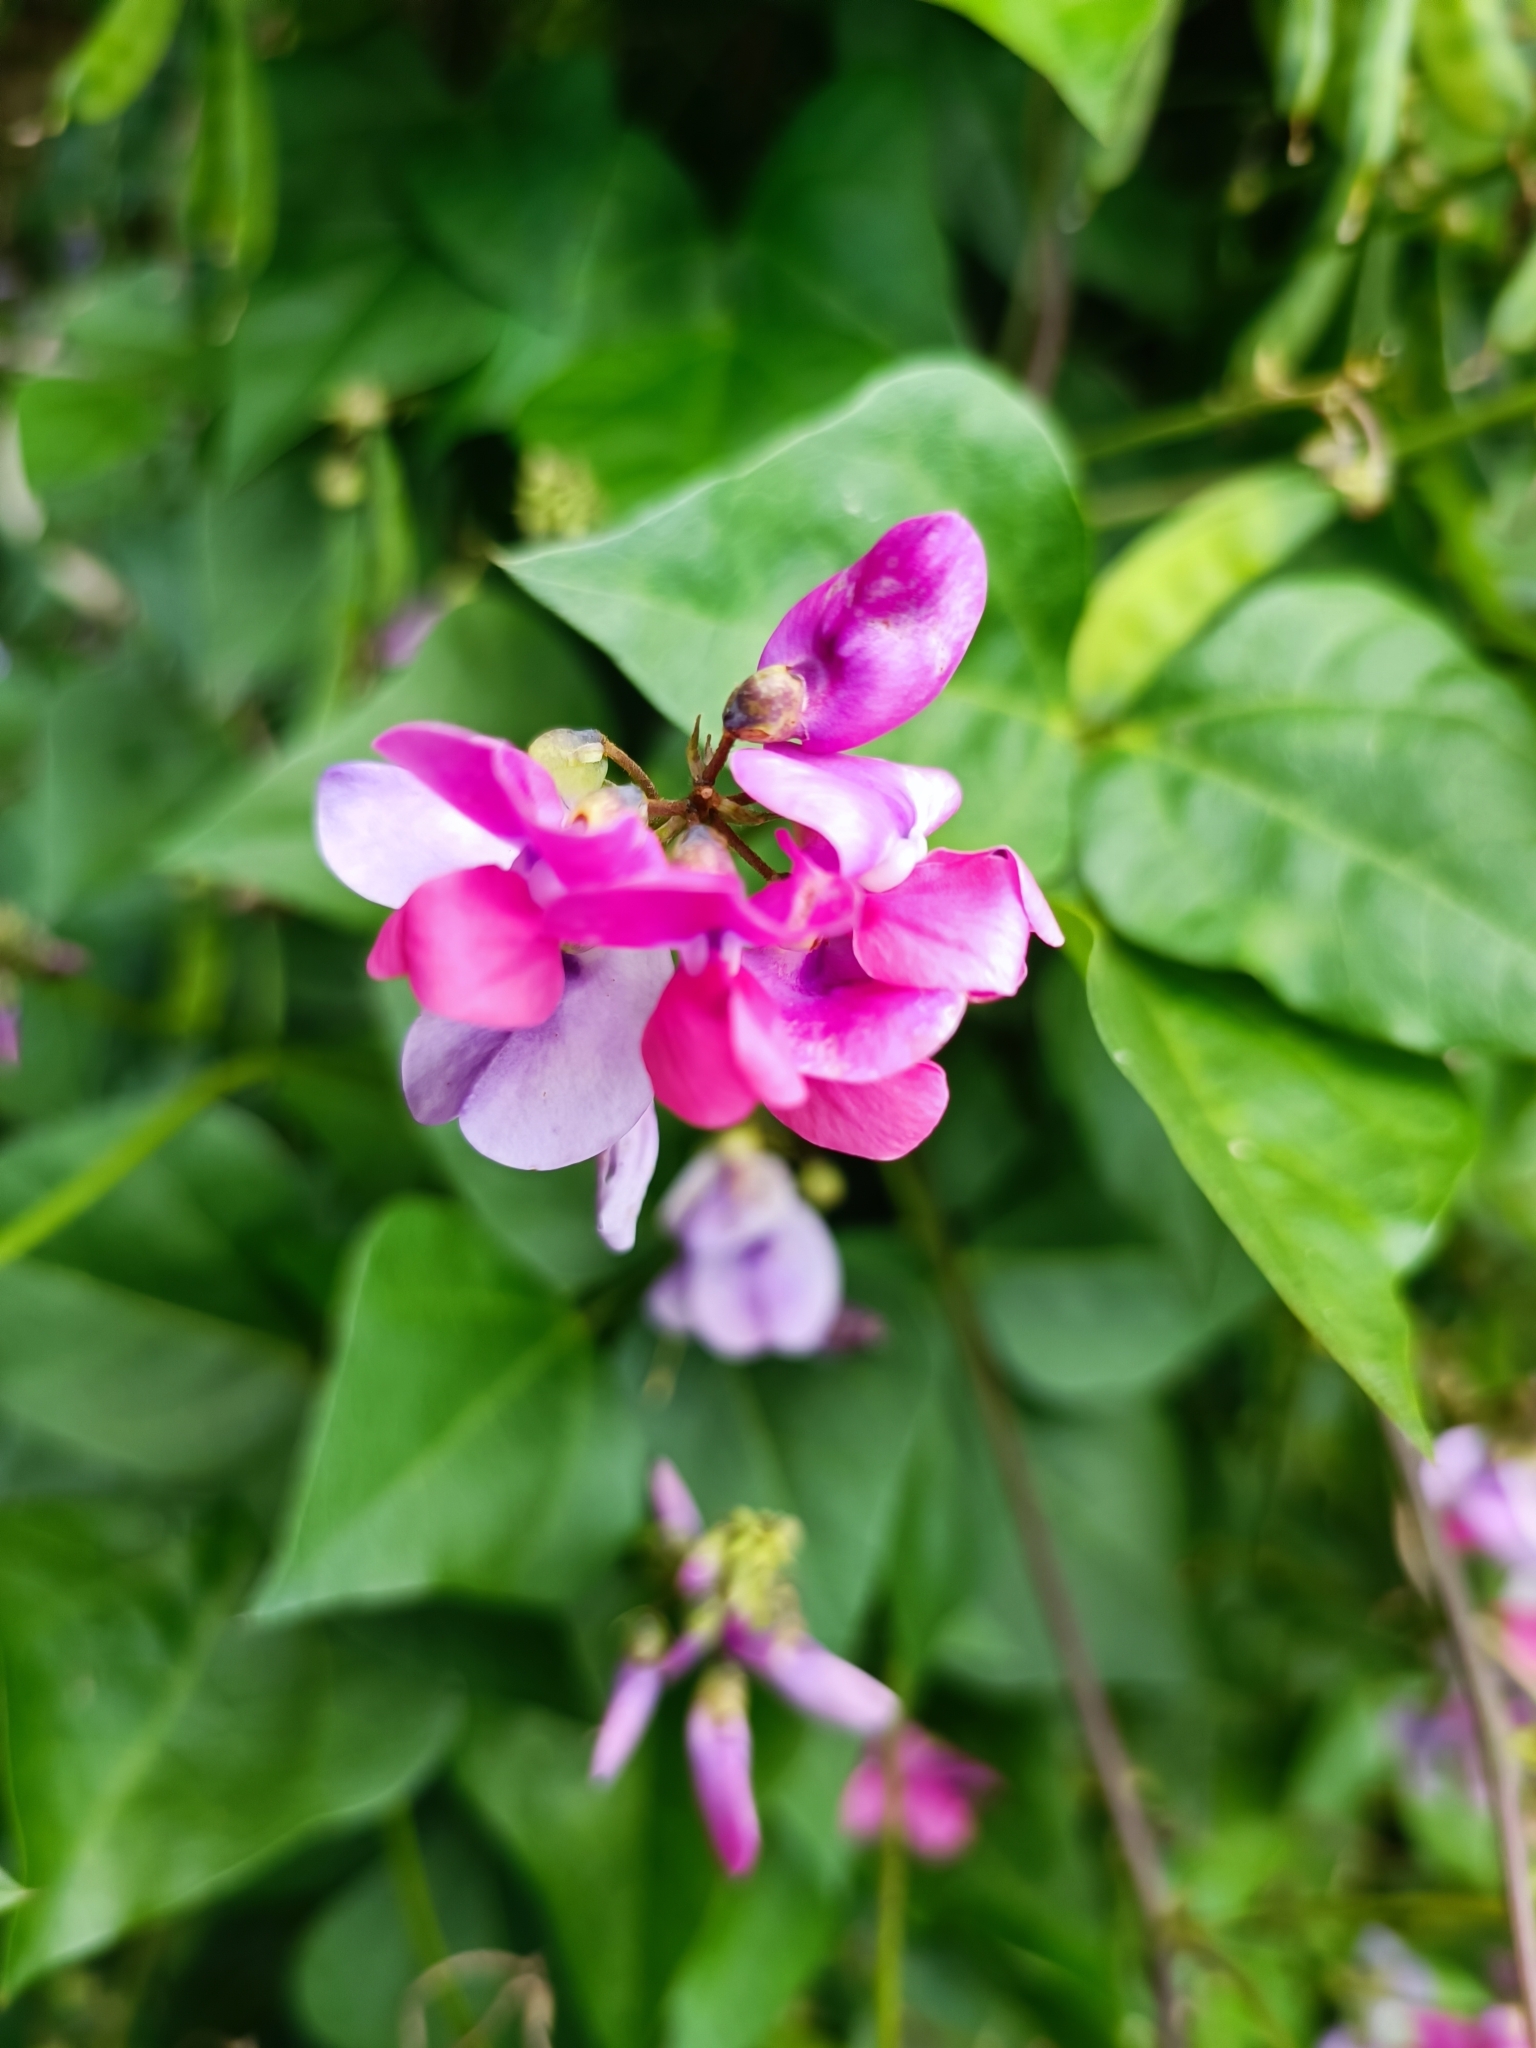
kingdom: Plantae
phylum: Tracheophyta
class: Magnoliopsida
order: Fabales
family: Fabaceae
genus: Dipogon
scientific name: Dipogon lignosus
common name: Okie bean
